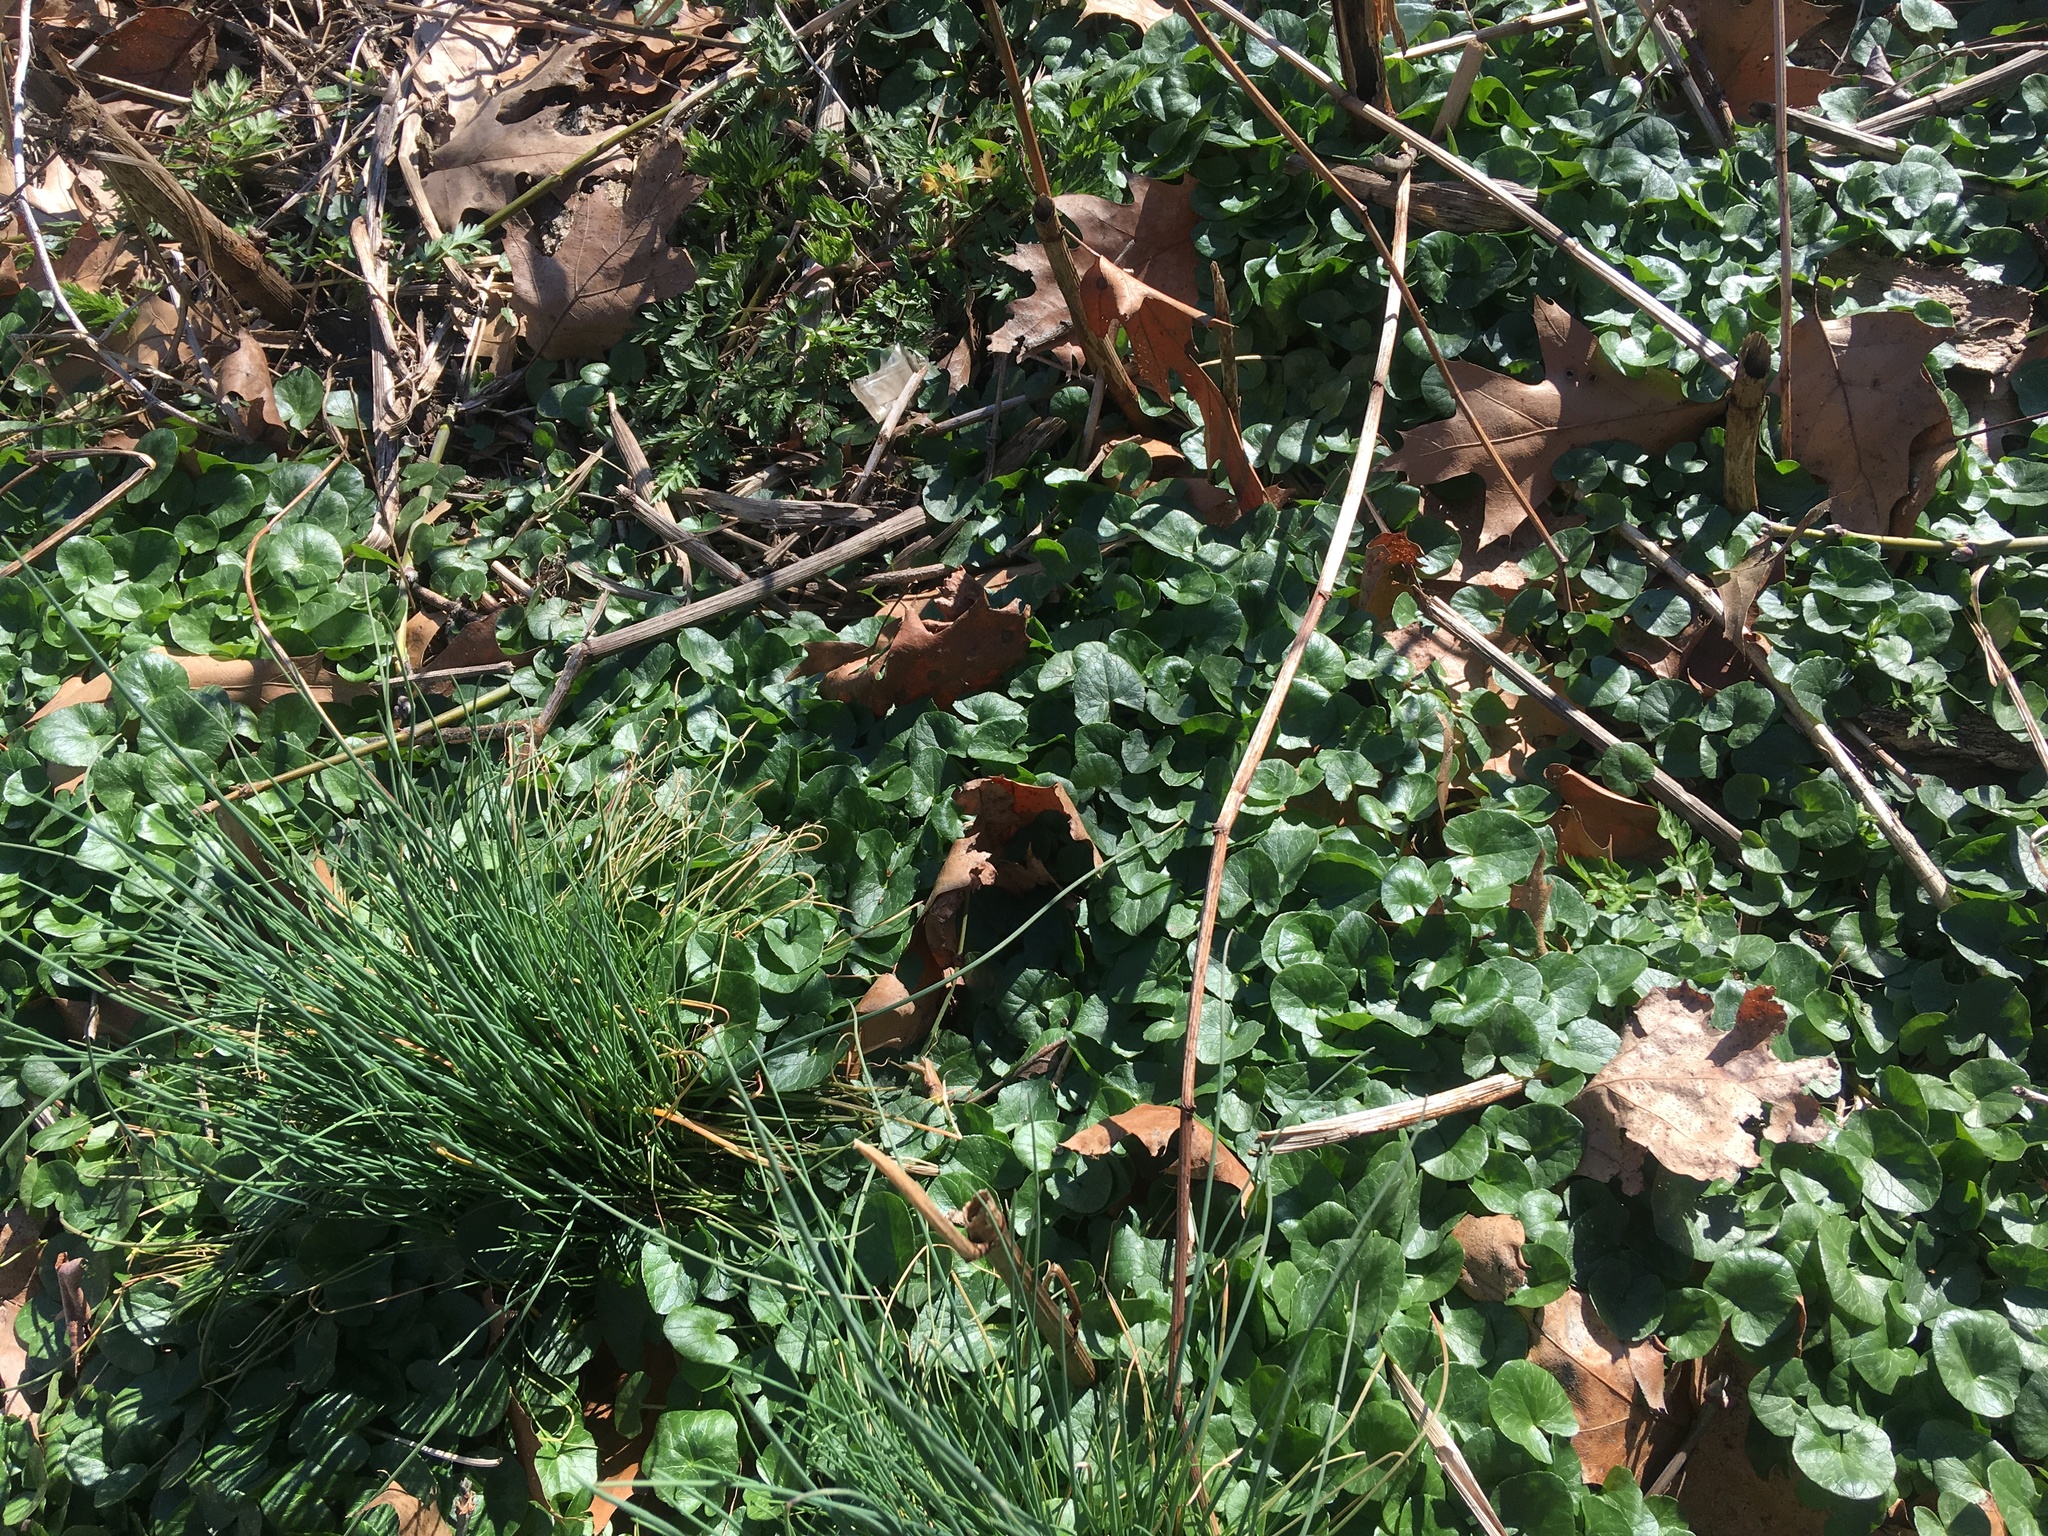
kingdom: Plantae
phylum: Tracheophyta
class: Magnoliopsida
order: Ranunculales
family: Ranunculaceae
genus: Ficaria
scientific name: Ficaria verna
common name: Lesser celandine
